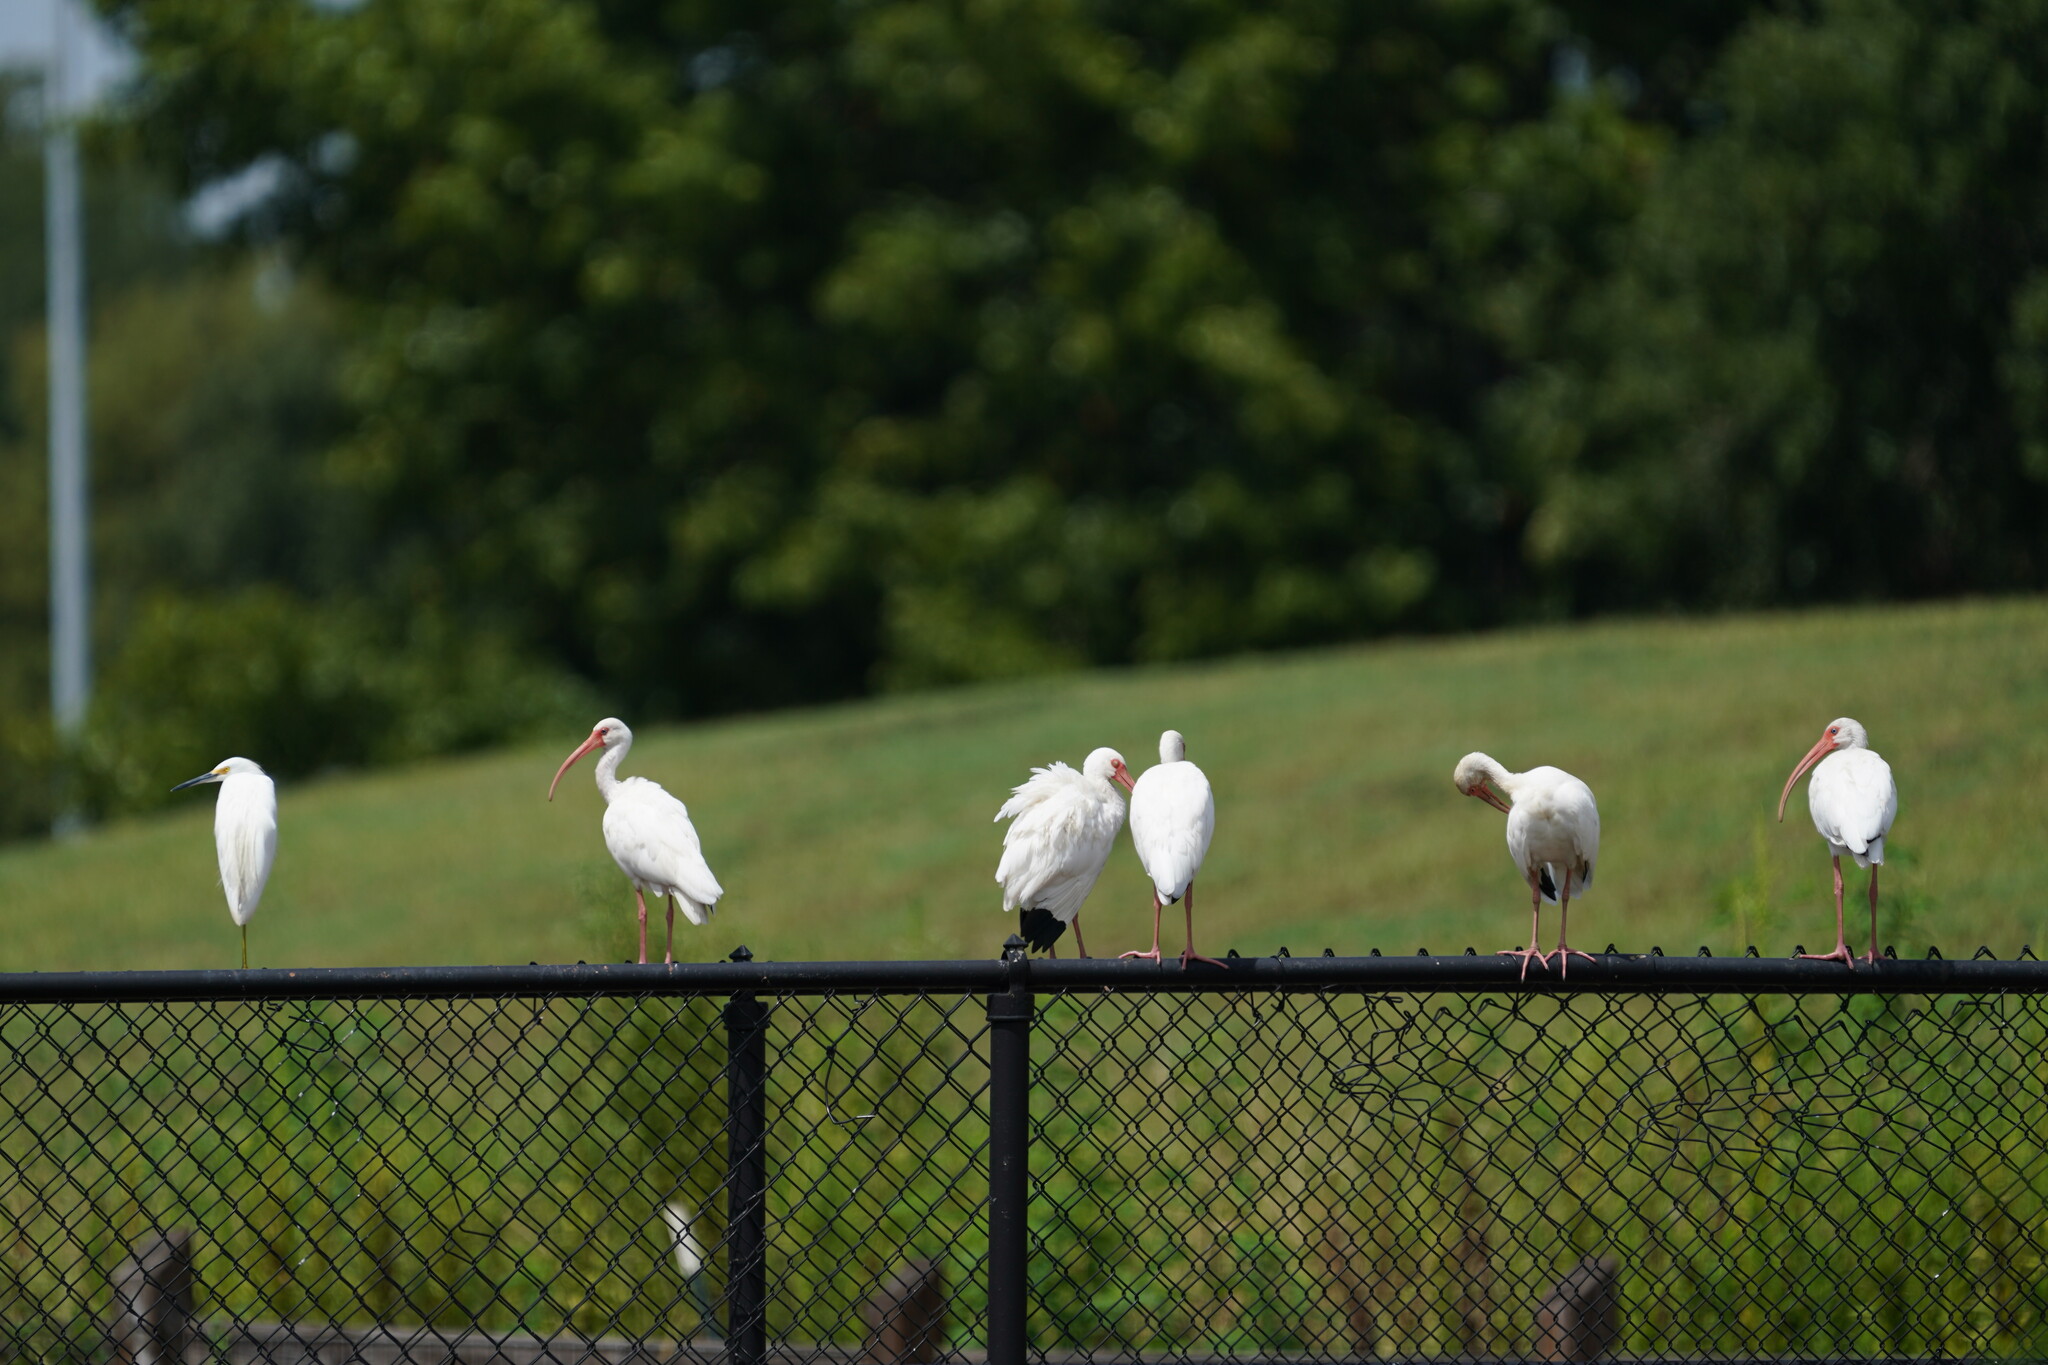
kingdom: Animalia
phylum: Chordata
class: Aves
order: Pelecaniformes
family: Threskiornithidae
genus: Eudocimus
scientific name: Eudocimus albus
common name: White ibis
